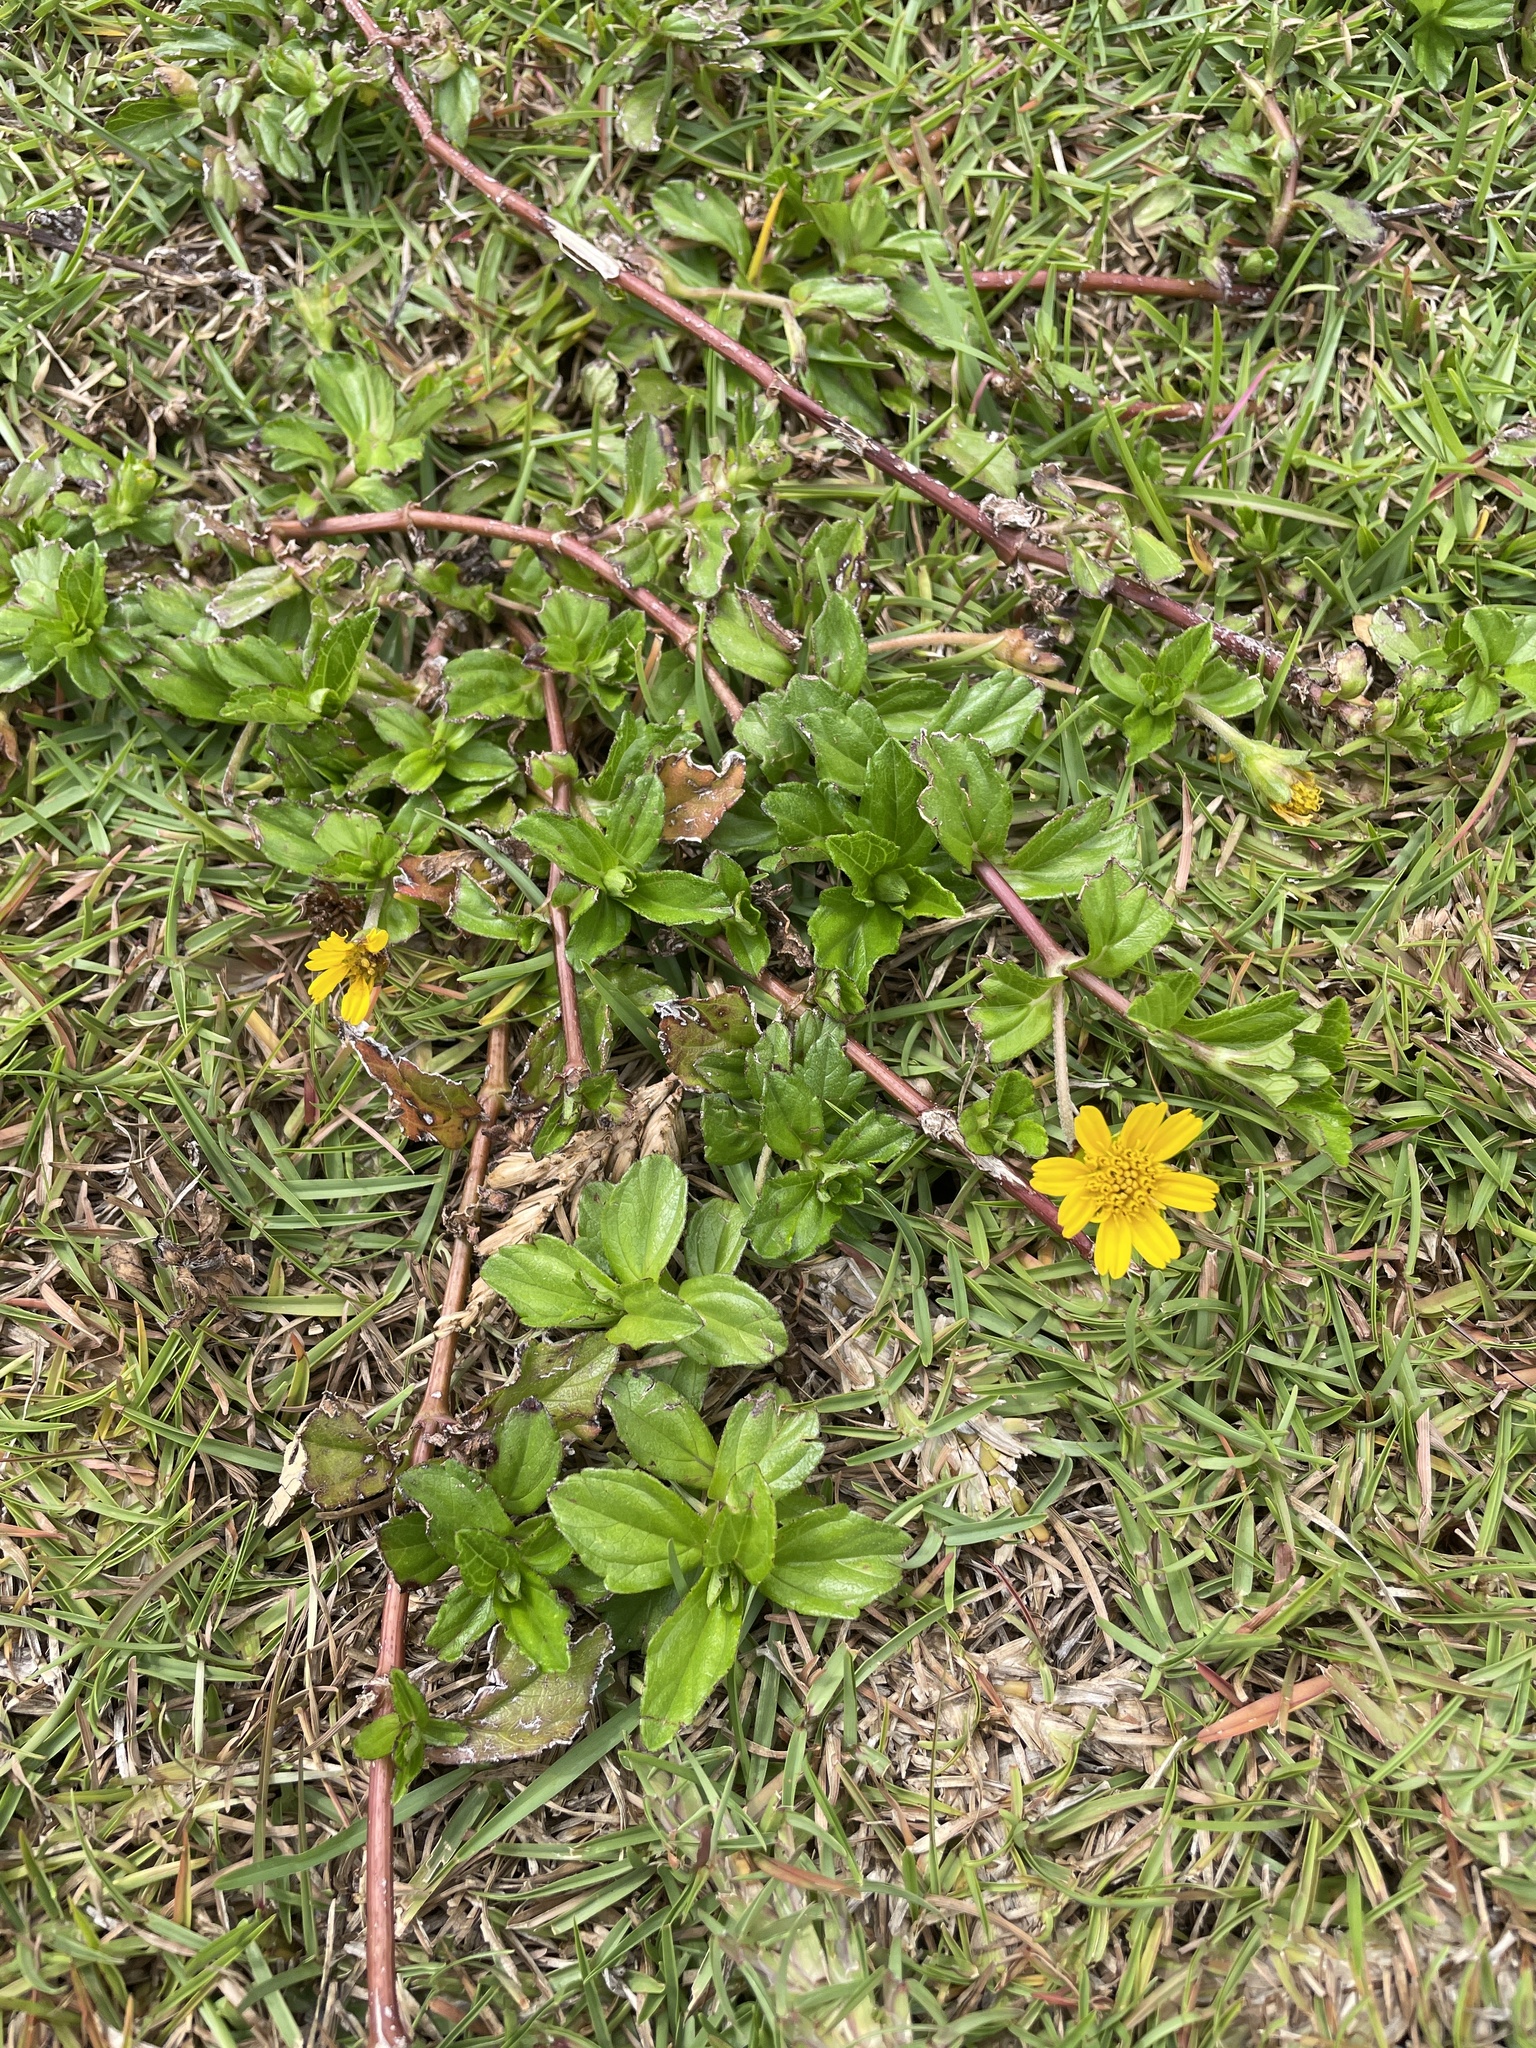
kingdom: Plantae
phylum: Tracheophyta
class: Magnoliopsida
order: Asterales
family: Asteraceae
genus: Sphagneticola
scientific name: Sphagneticola trilobata
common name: Bay biscayne creeping-oxeye
